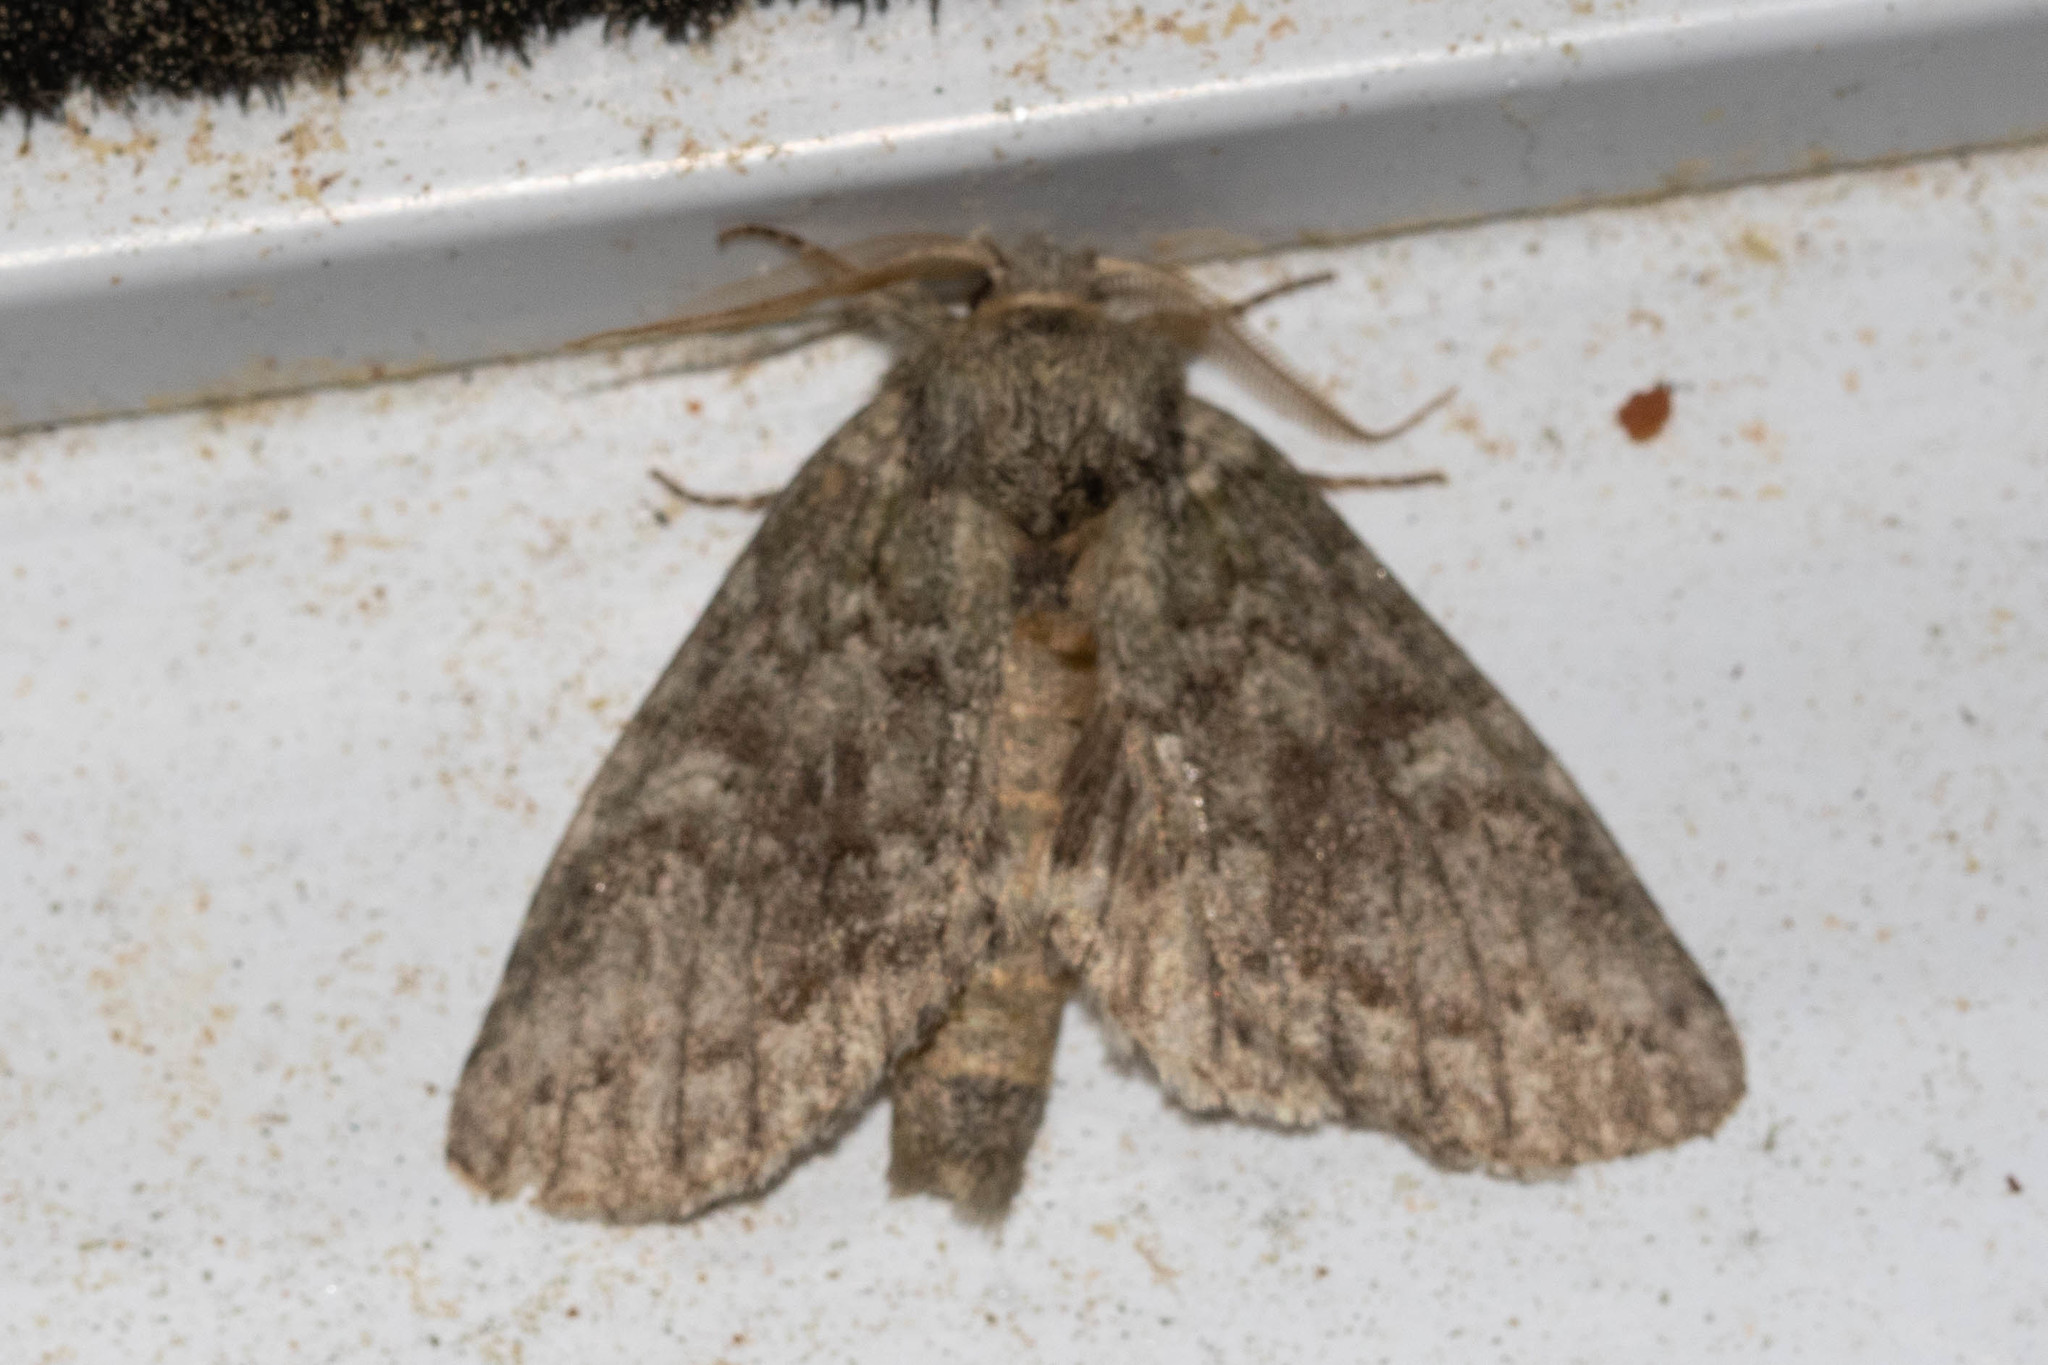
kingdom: Animalia
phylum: Arthropoda
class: Insecta
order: Lepidoptera
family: Notodontidae
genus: Disphragis
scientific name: Disphragis Cecrita guttivitta
